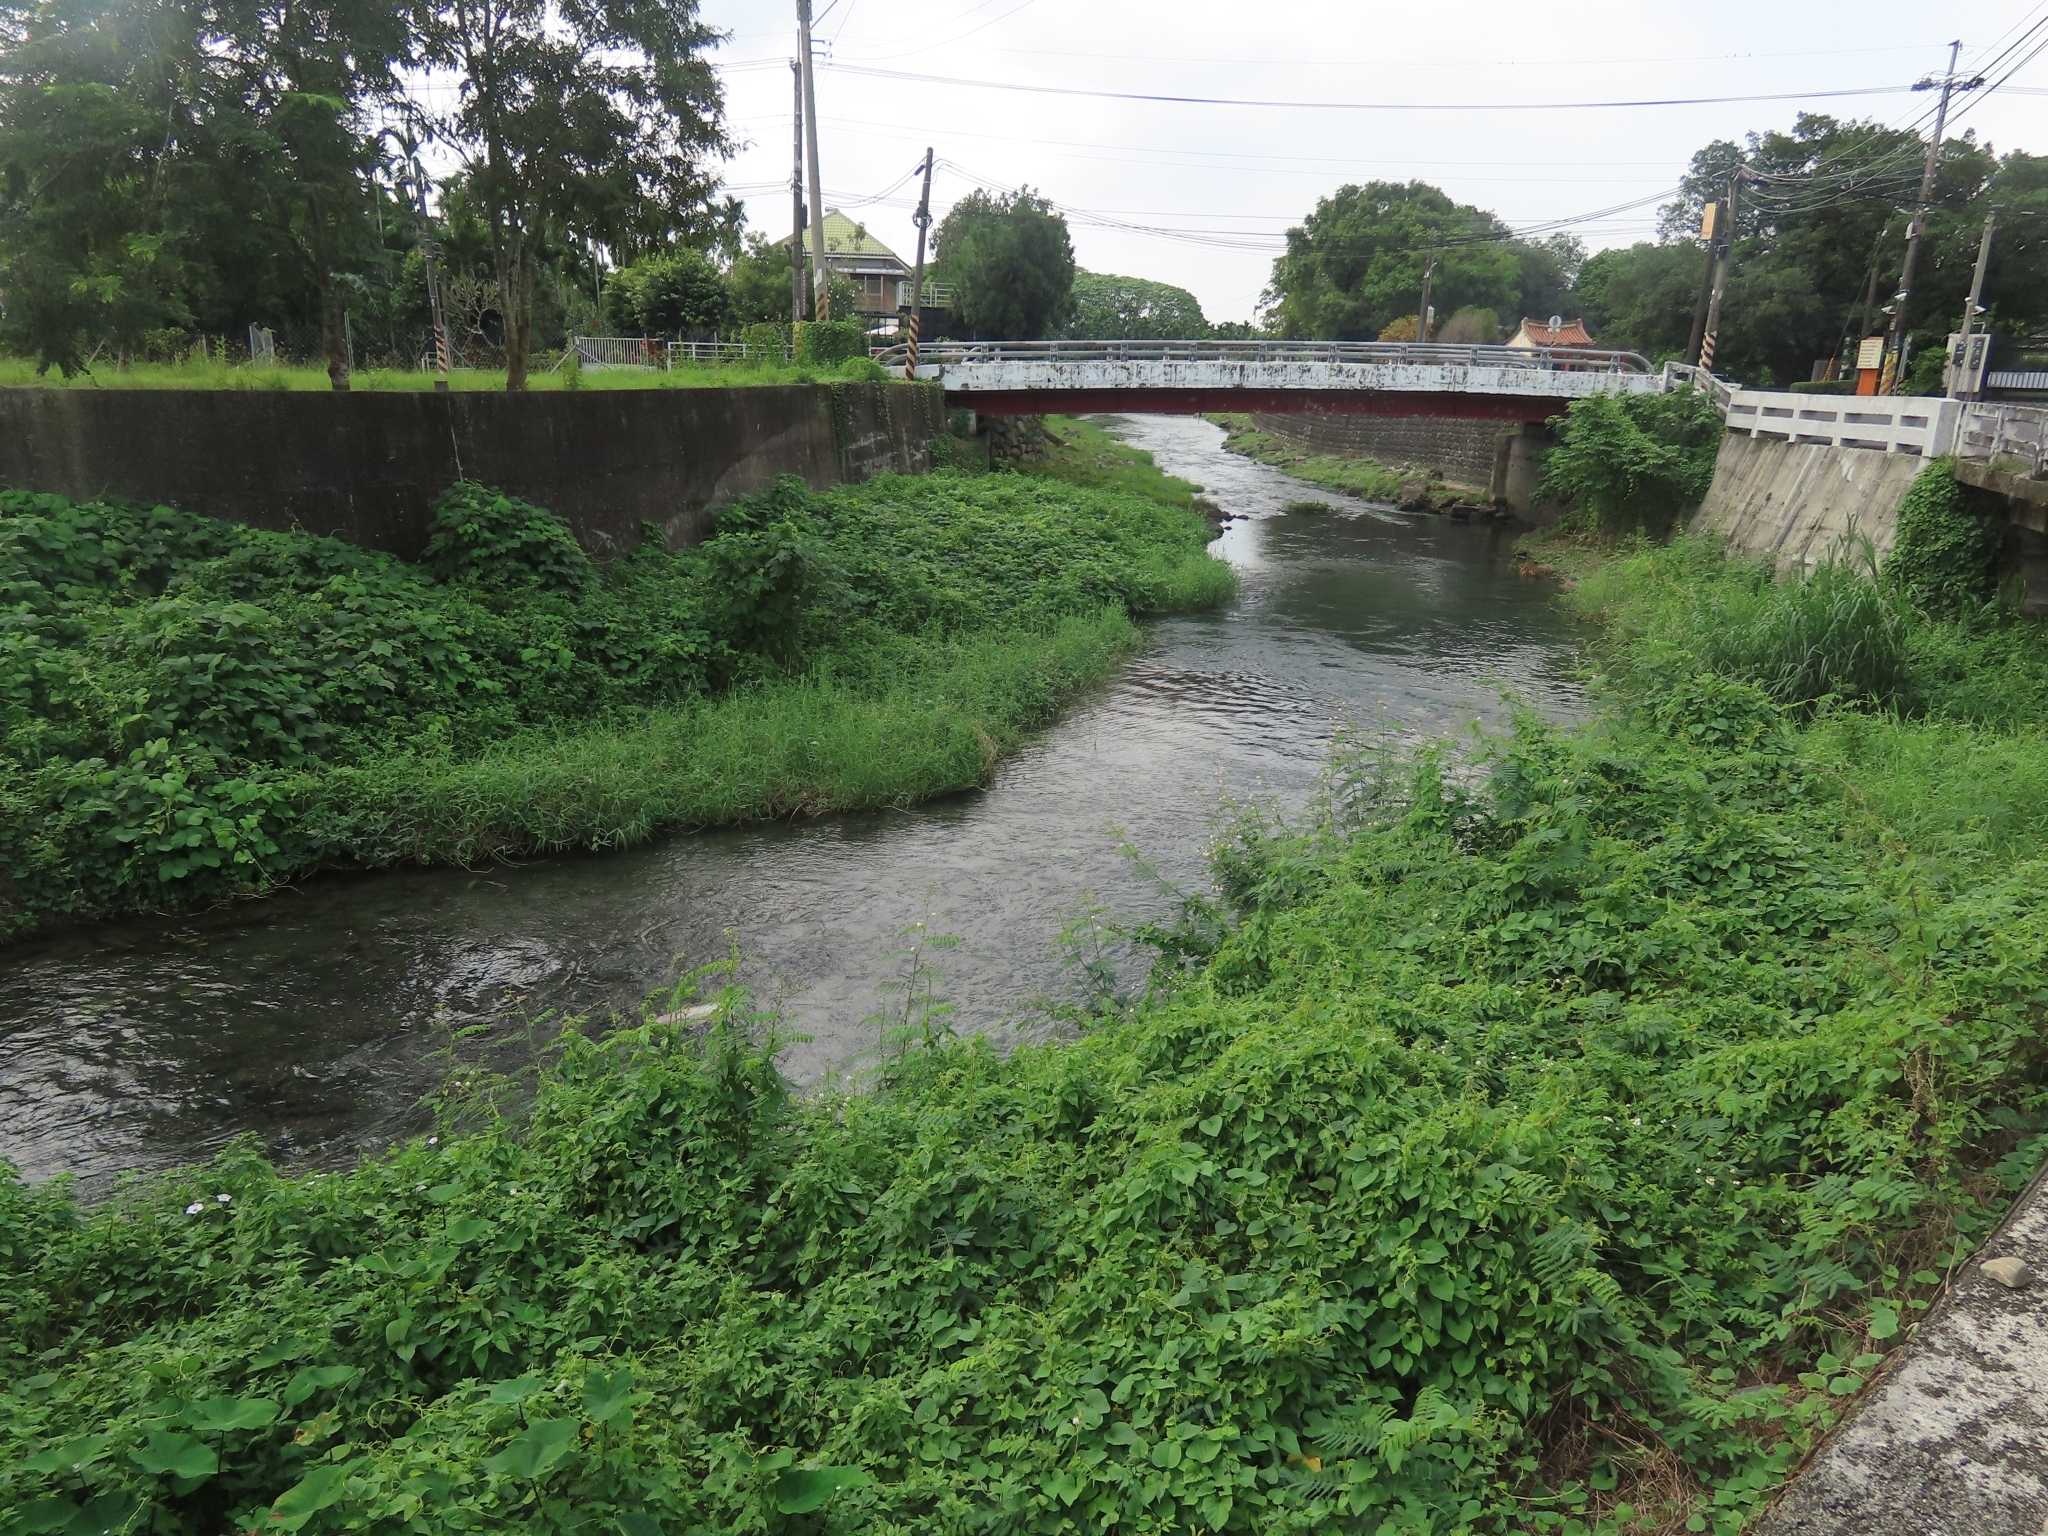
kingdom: Plantae
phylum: Tracheophyta
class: Magnoliopsida
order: Fabales
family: Fabaceae
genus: Mimosa
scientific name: Mimosa pigra
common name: Black mimosa
